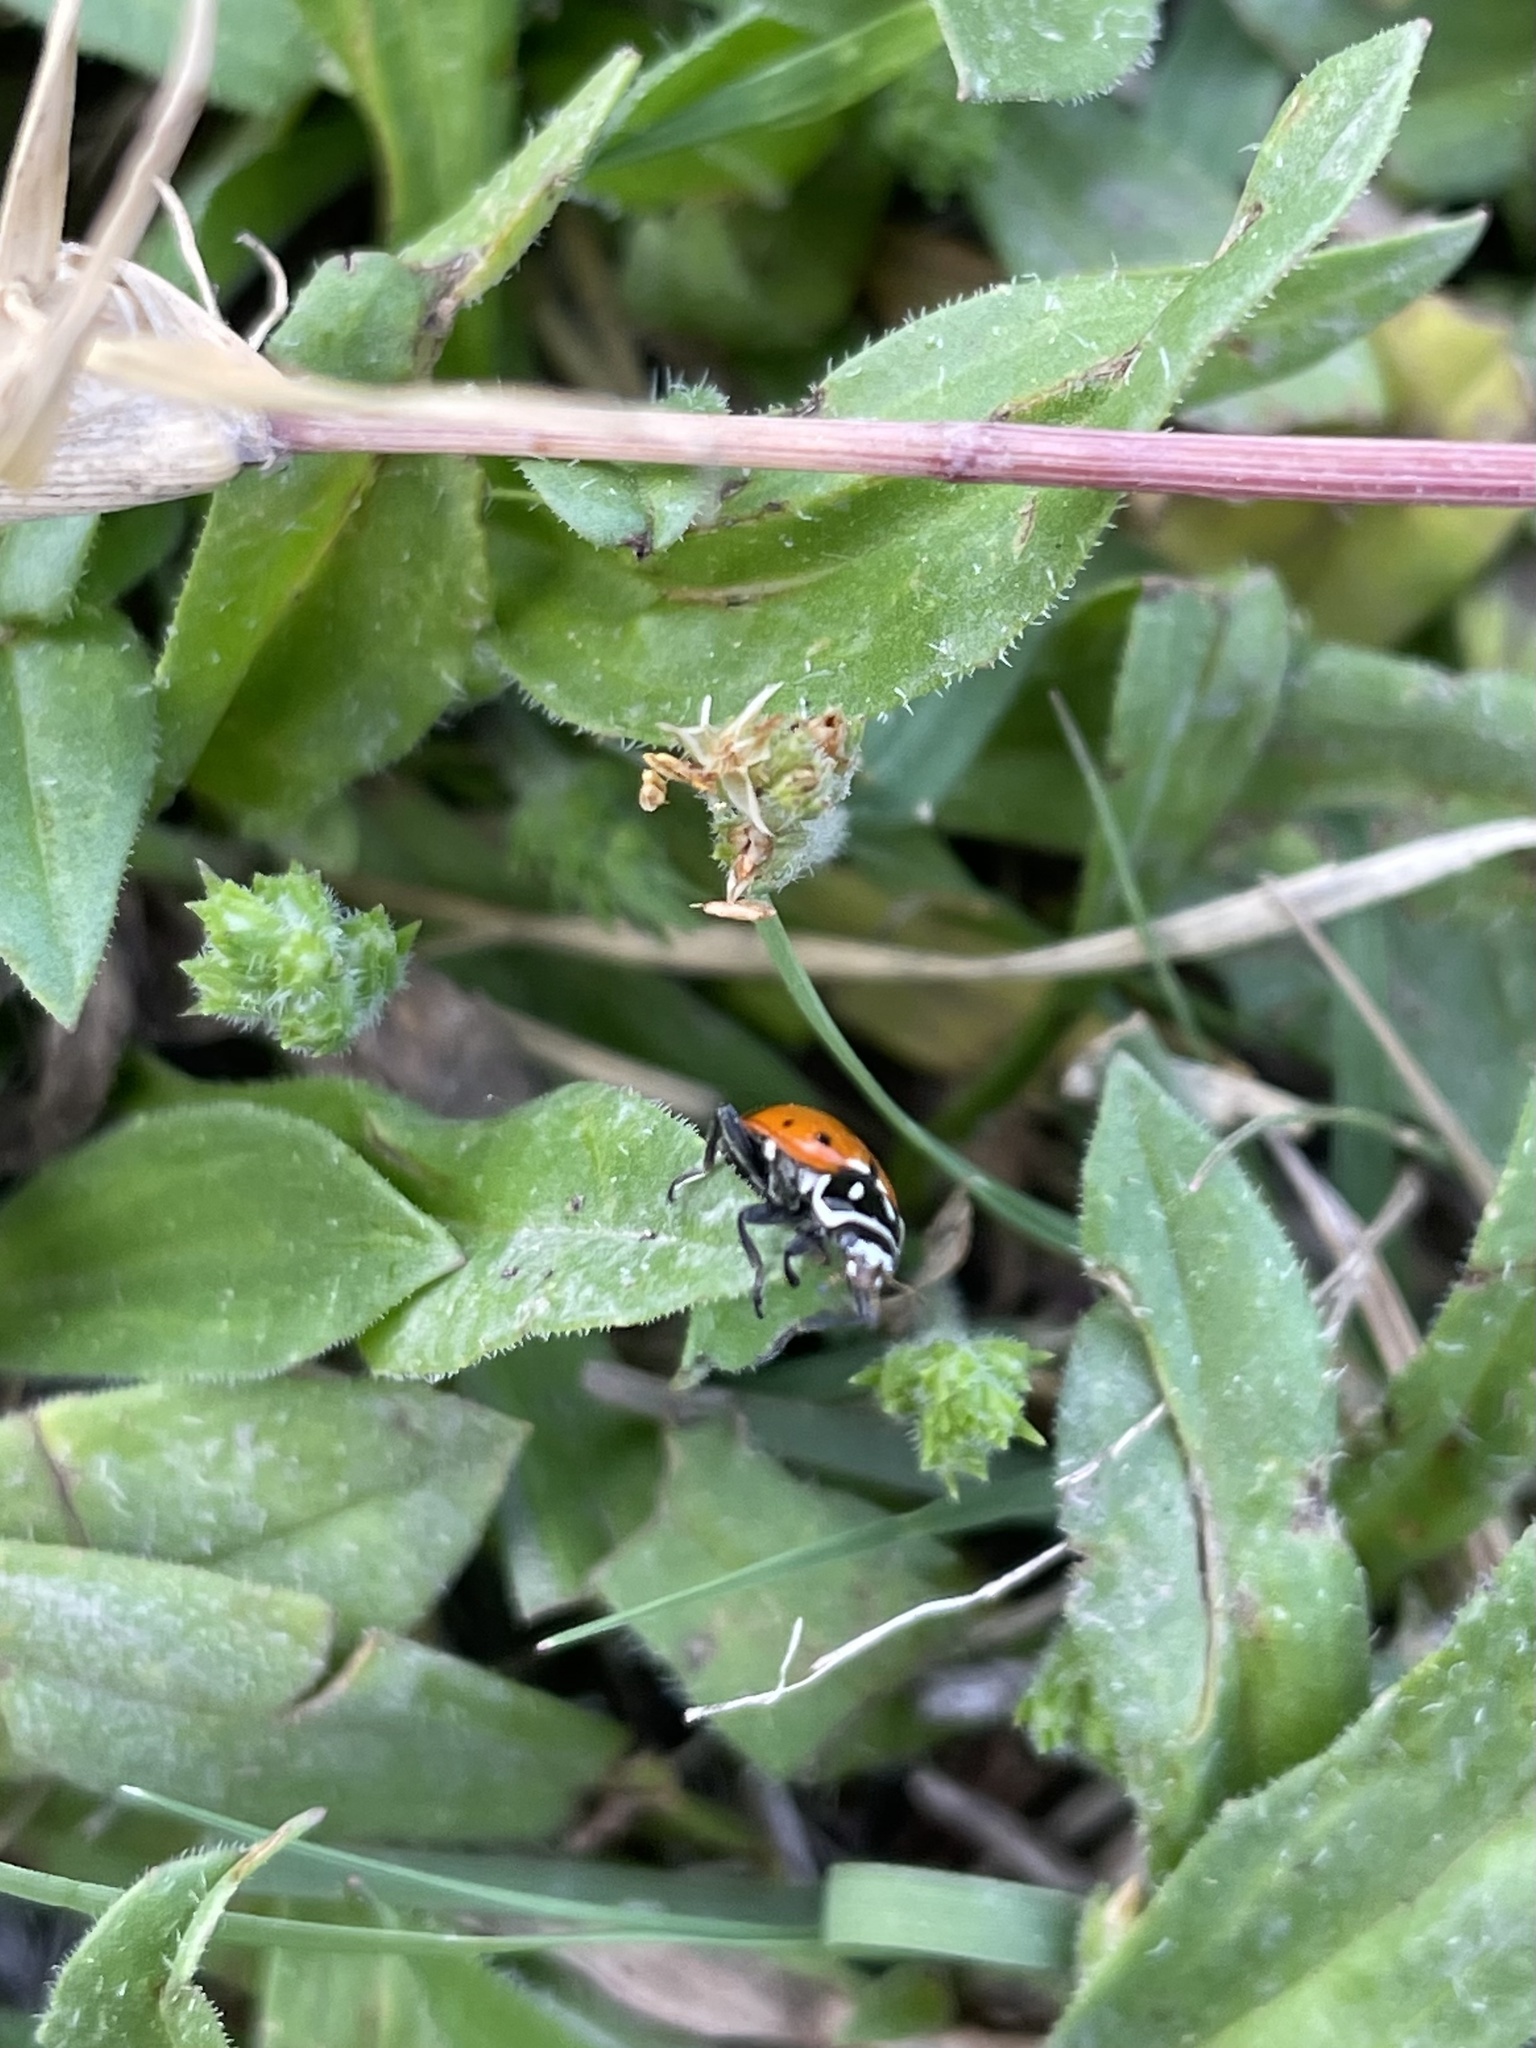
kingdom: Animalia
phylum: Arthropoda
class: Insecta
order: Coleoptera
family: Coccinellidae
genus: Hippodamia
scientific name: Hippodamia convergens
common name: Convergent lady beetle
